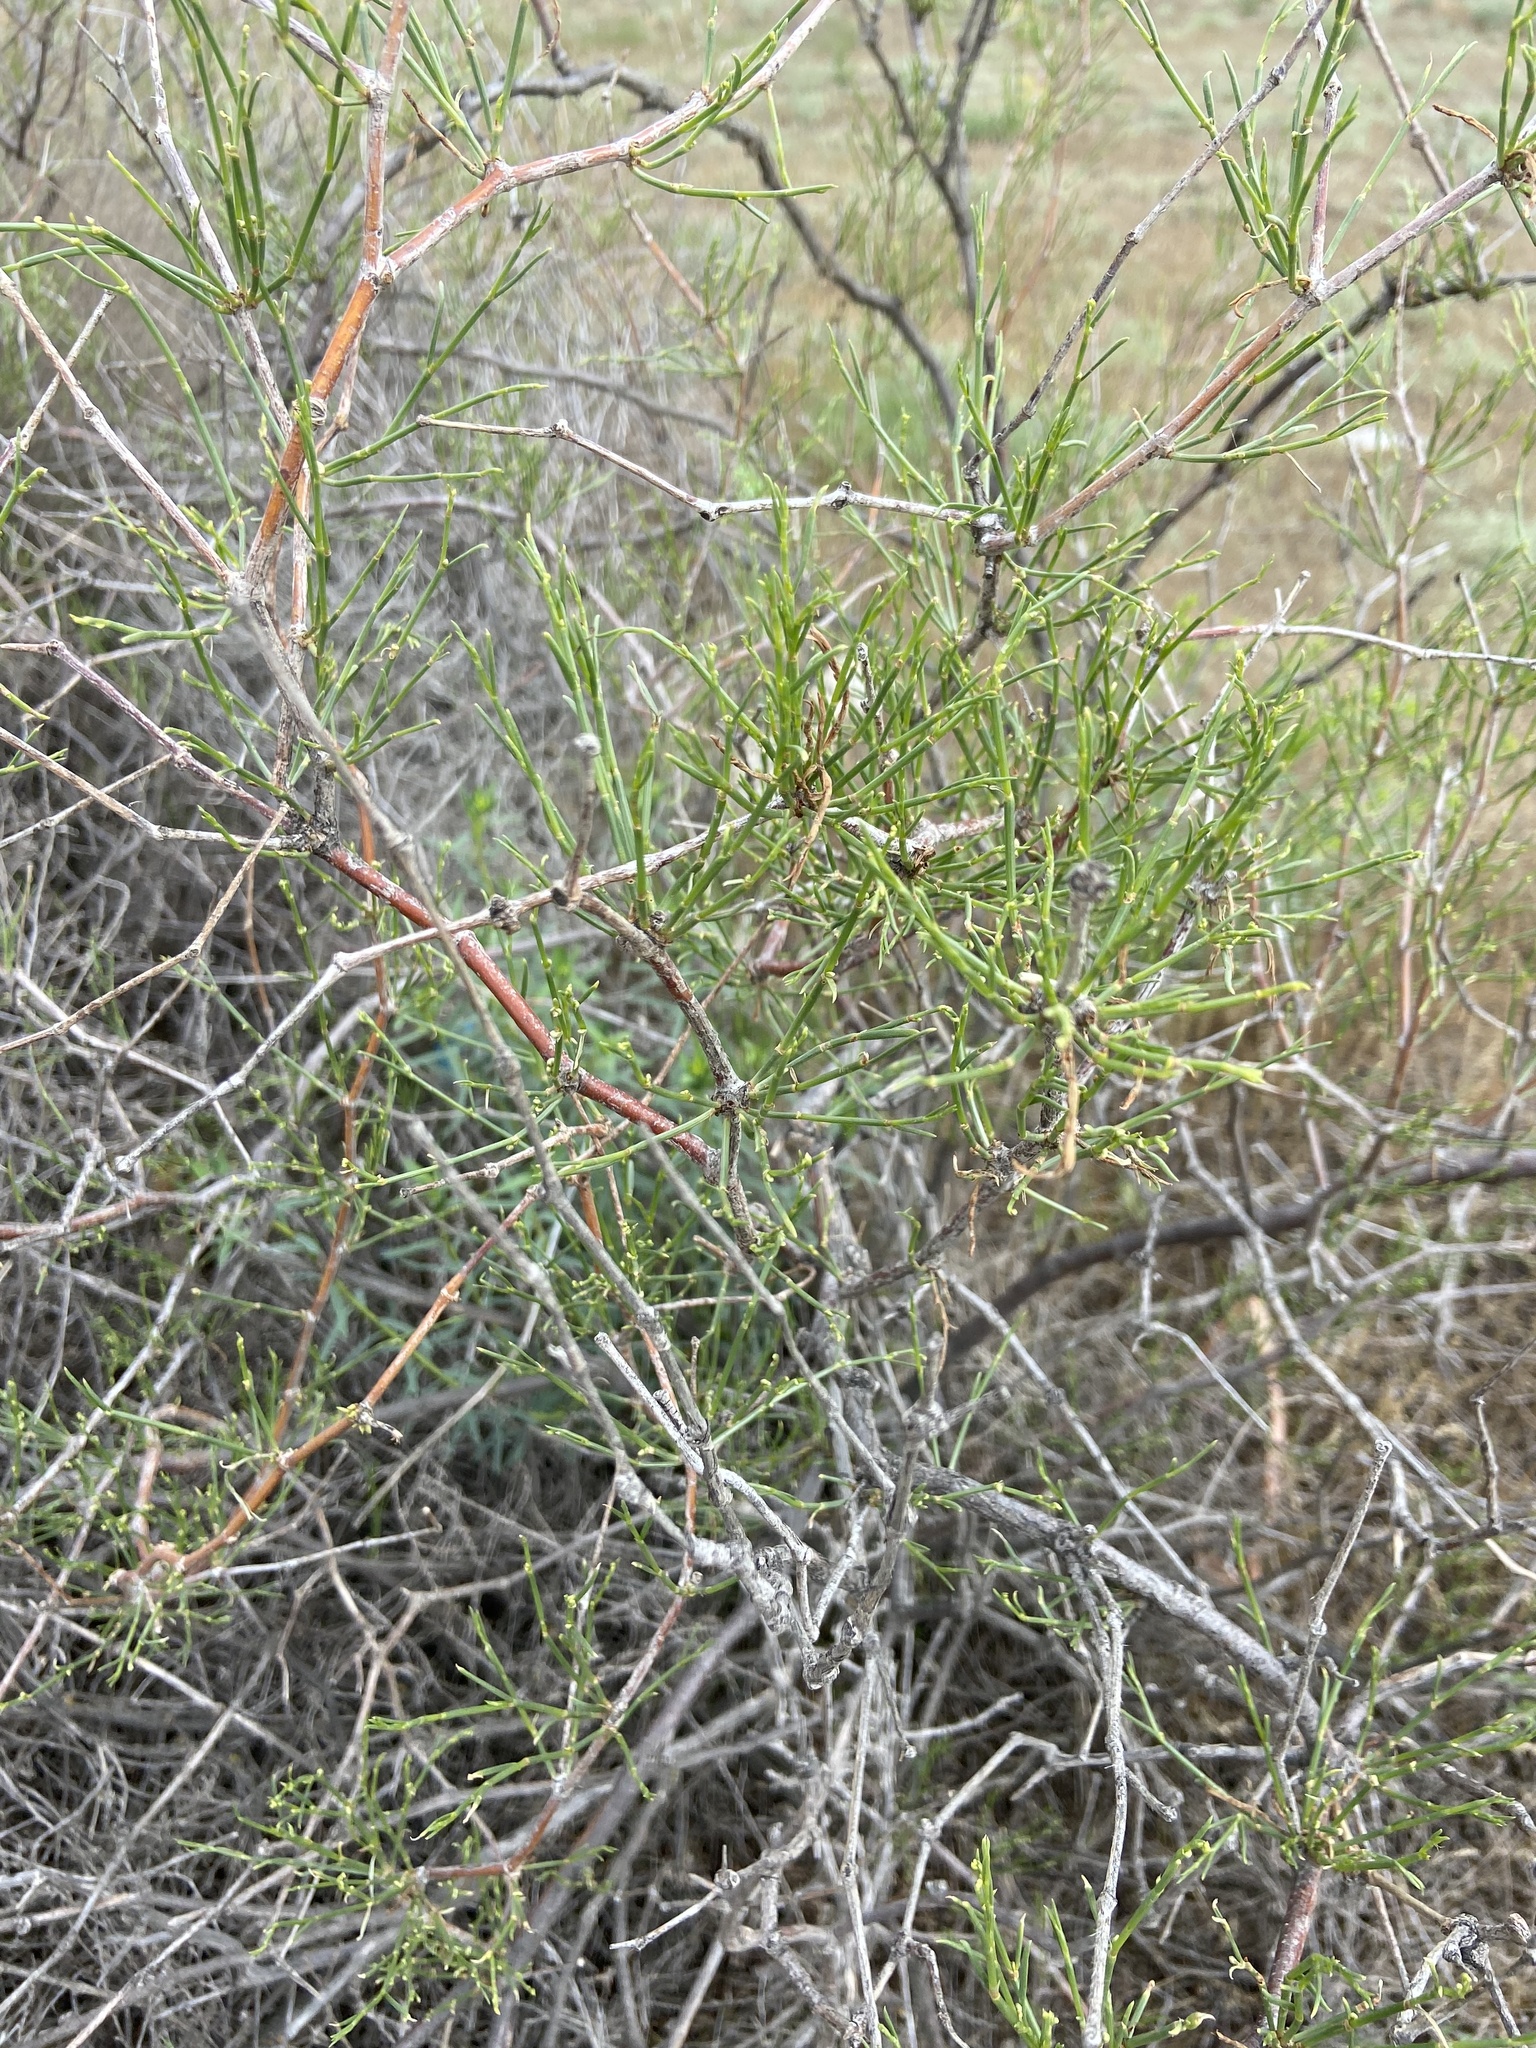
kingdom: Plantae
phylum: Tracheophyta
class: Magnoliopsida
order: Caryophyllales
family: Polygonaceae
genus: Calligonum
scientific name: Calligonum aphyllum
